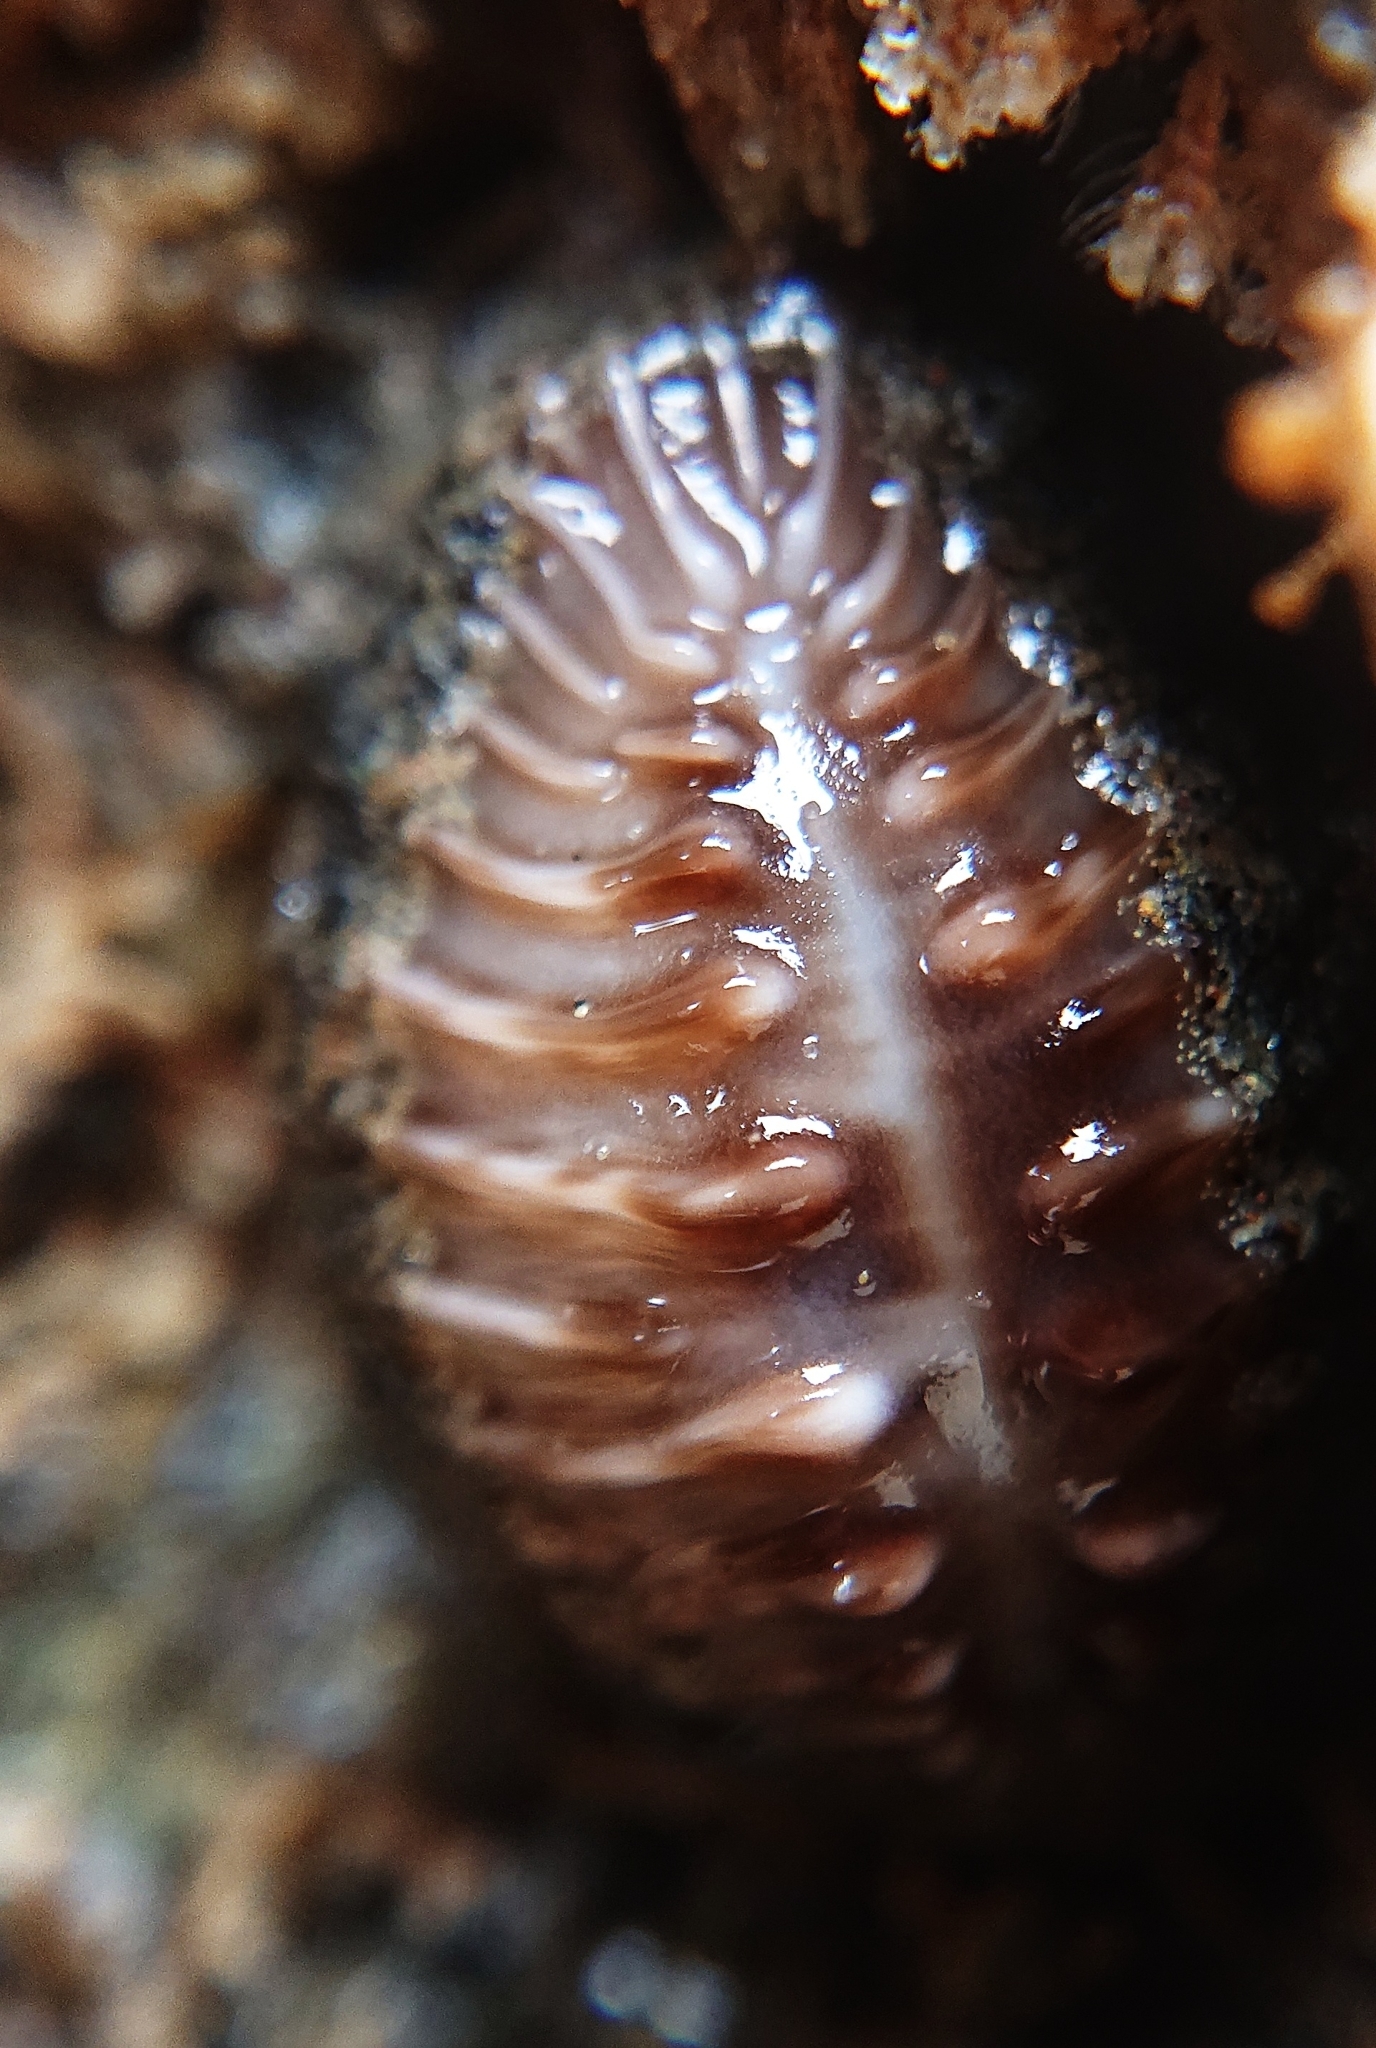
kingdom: Animalia
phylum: Mollusca
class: Gastropoda
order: Littorinimorpha
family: Triviidae
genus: Pusula
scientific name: Pusula radians
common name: Radians trivia
